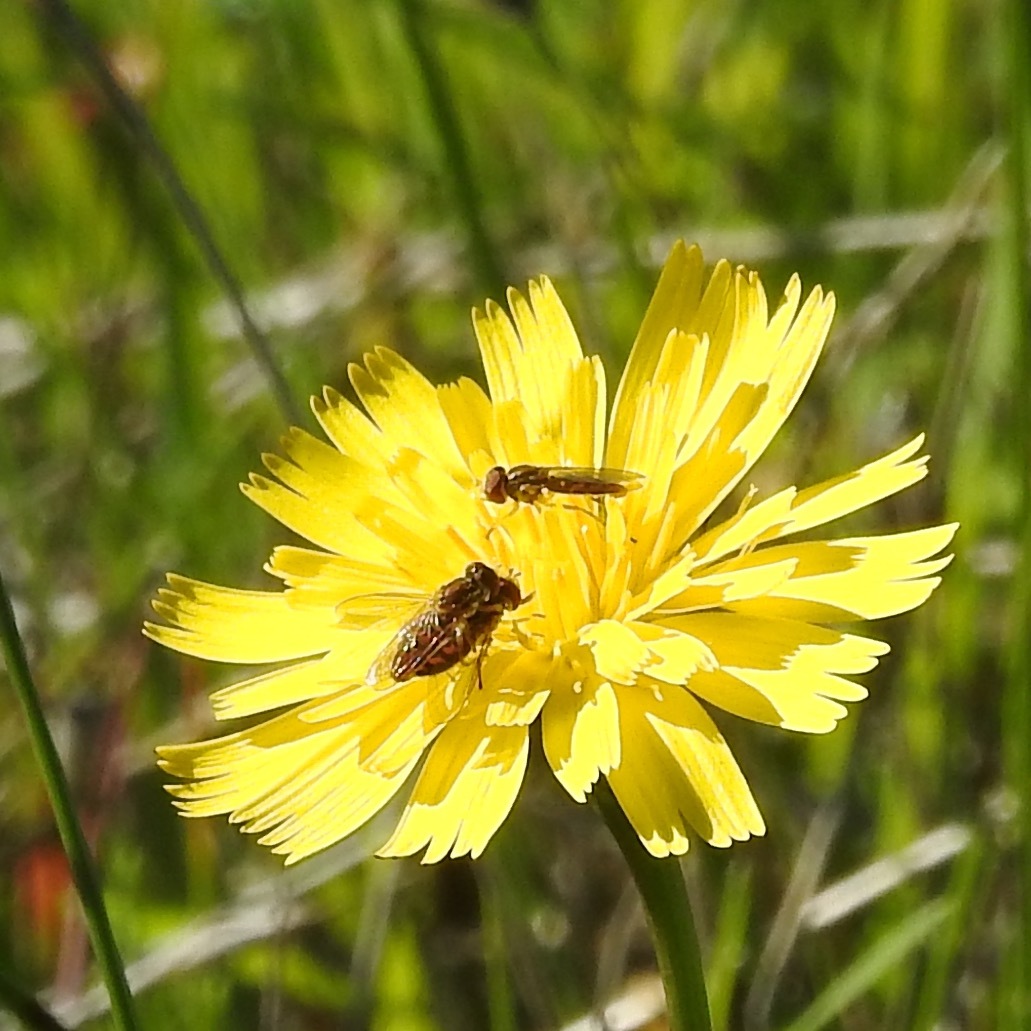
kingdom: Animalia
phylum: Arthropoda
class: Insecta
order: Diptera
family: Syrphidae
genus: Toxomerus
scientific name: Toxomerus marginatus
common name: Syrphid fly
